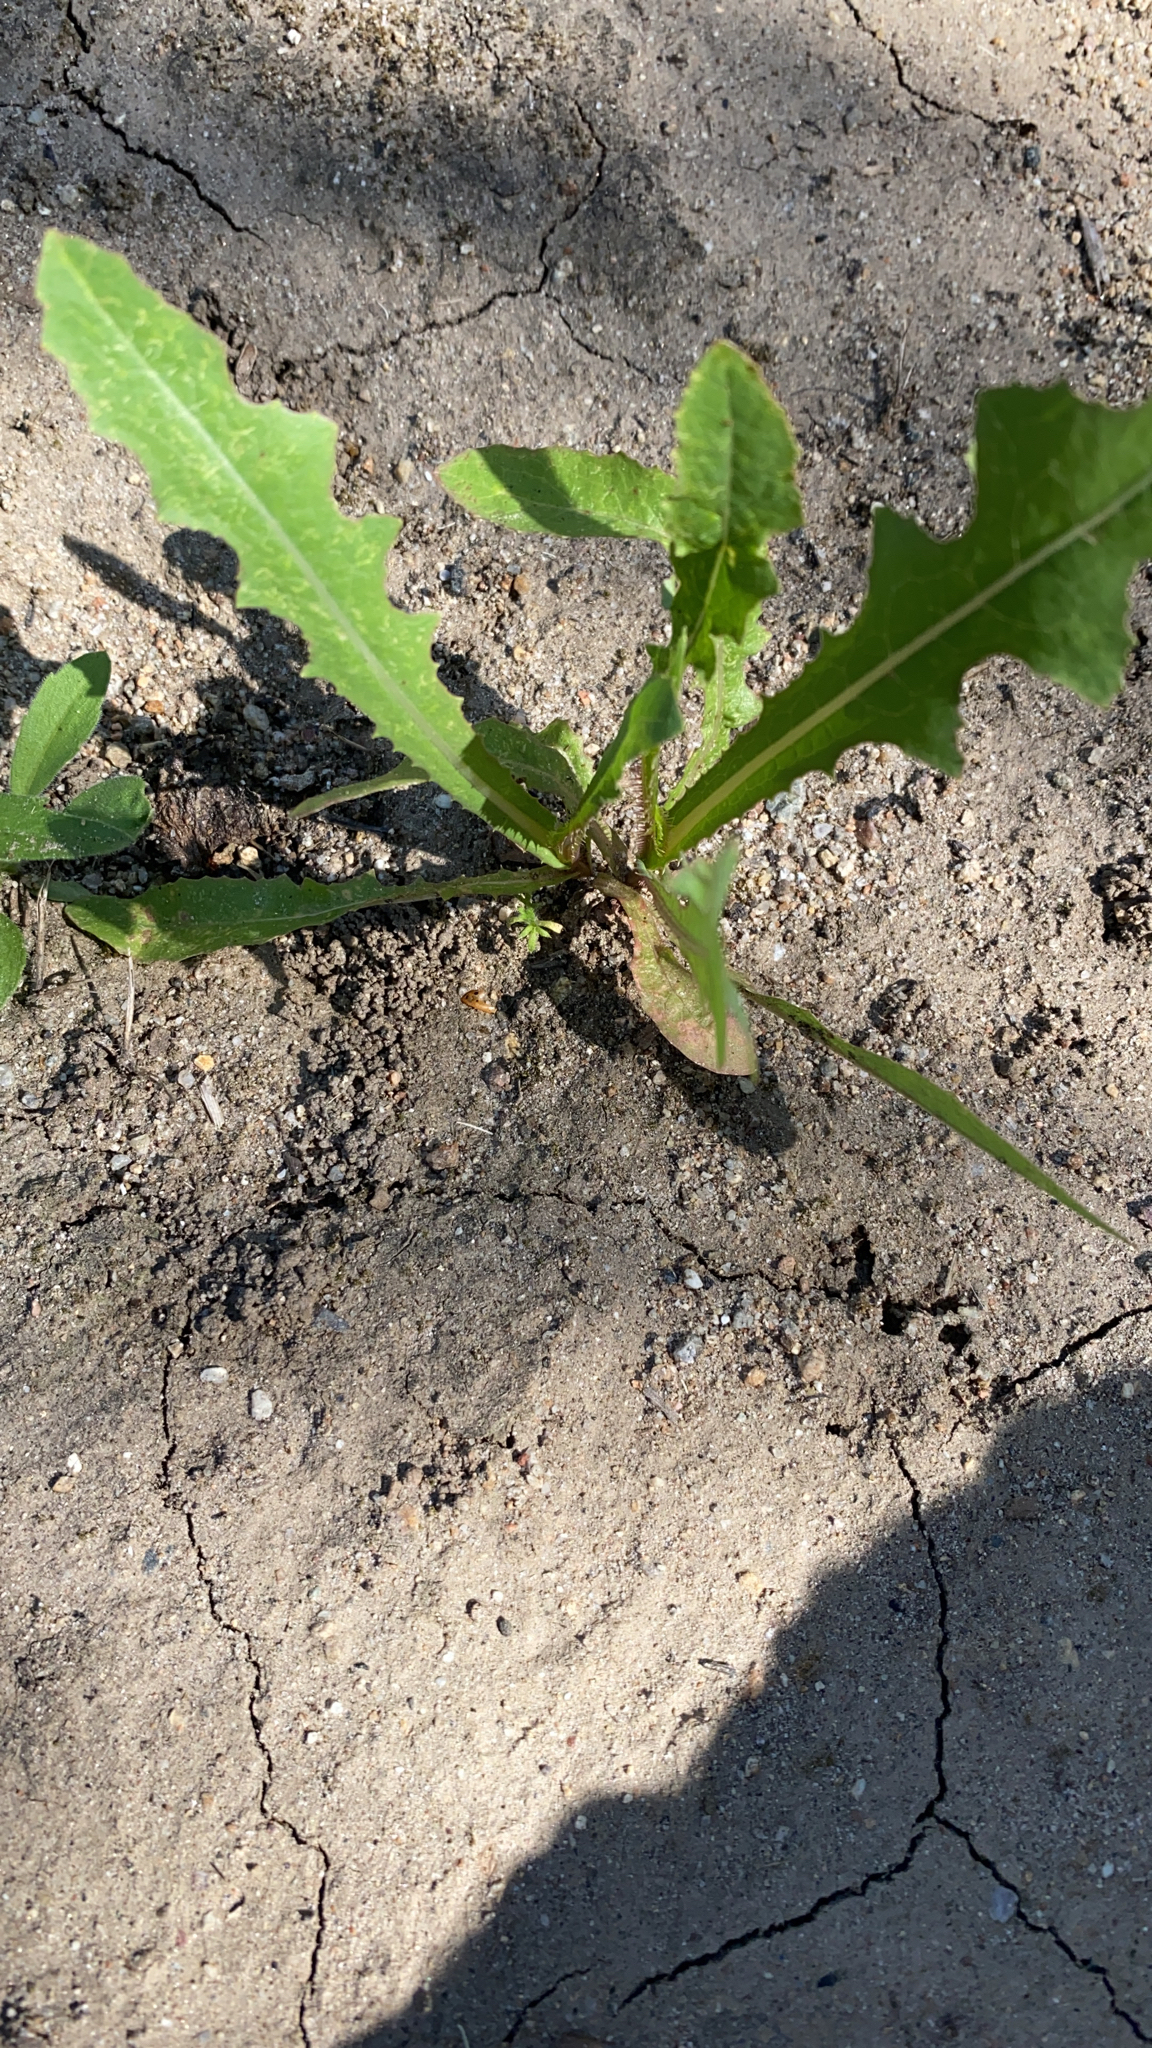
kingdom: Plantae
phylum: Tracheophyta
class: Magnoliopsida
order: Asterales
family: Asteraceae
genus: Lactuca
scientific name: Lactuca serriola
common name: Prickly lettuce
